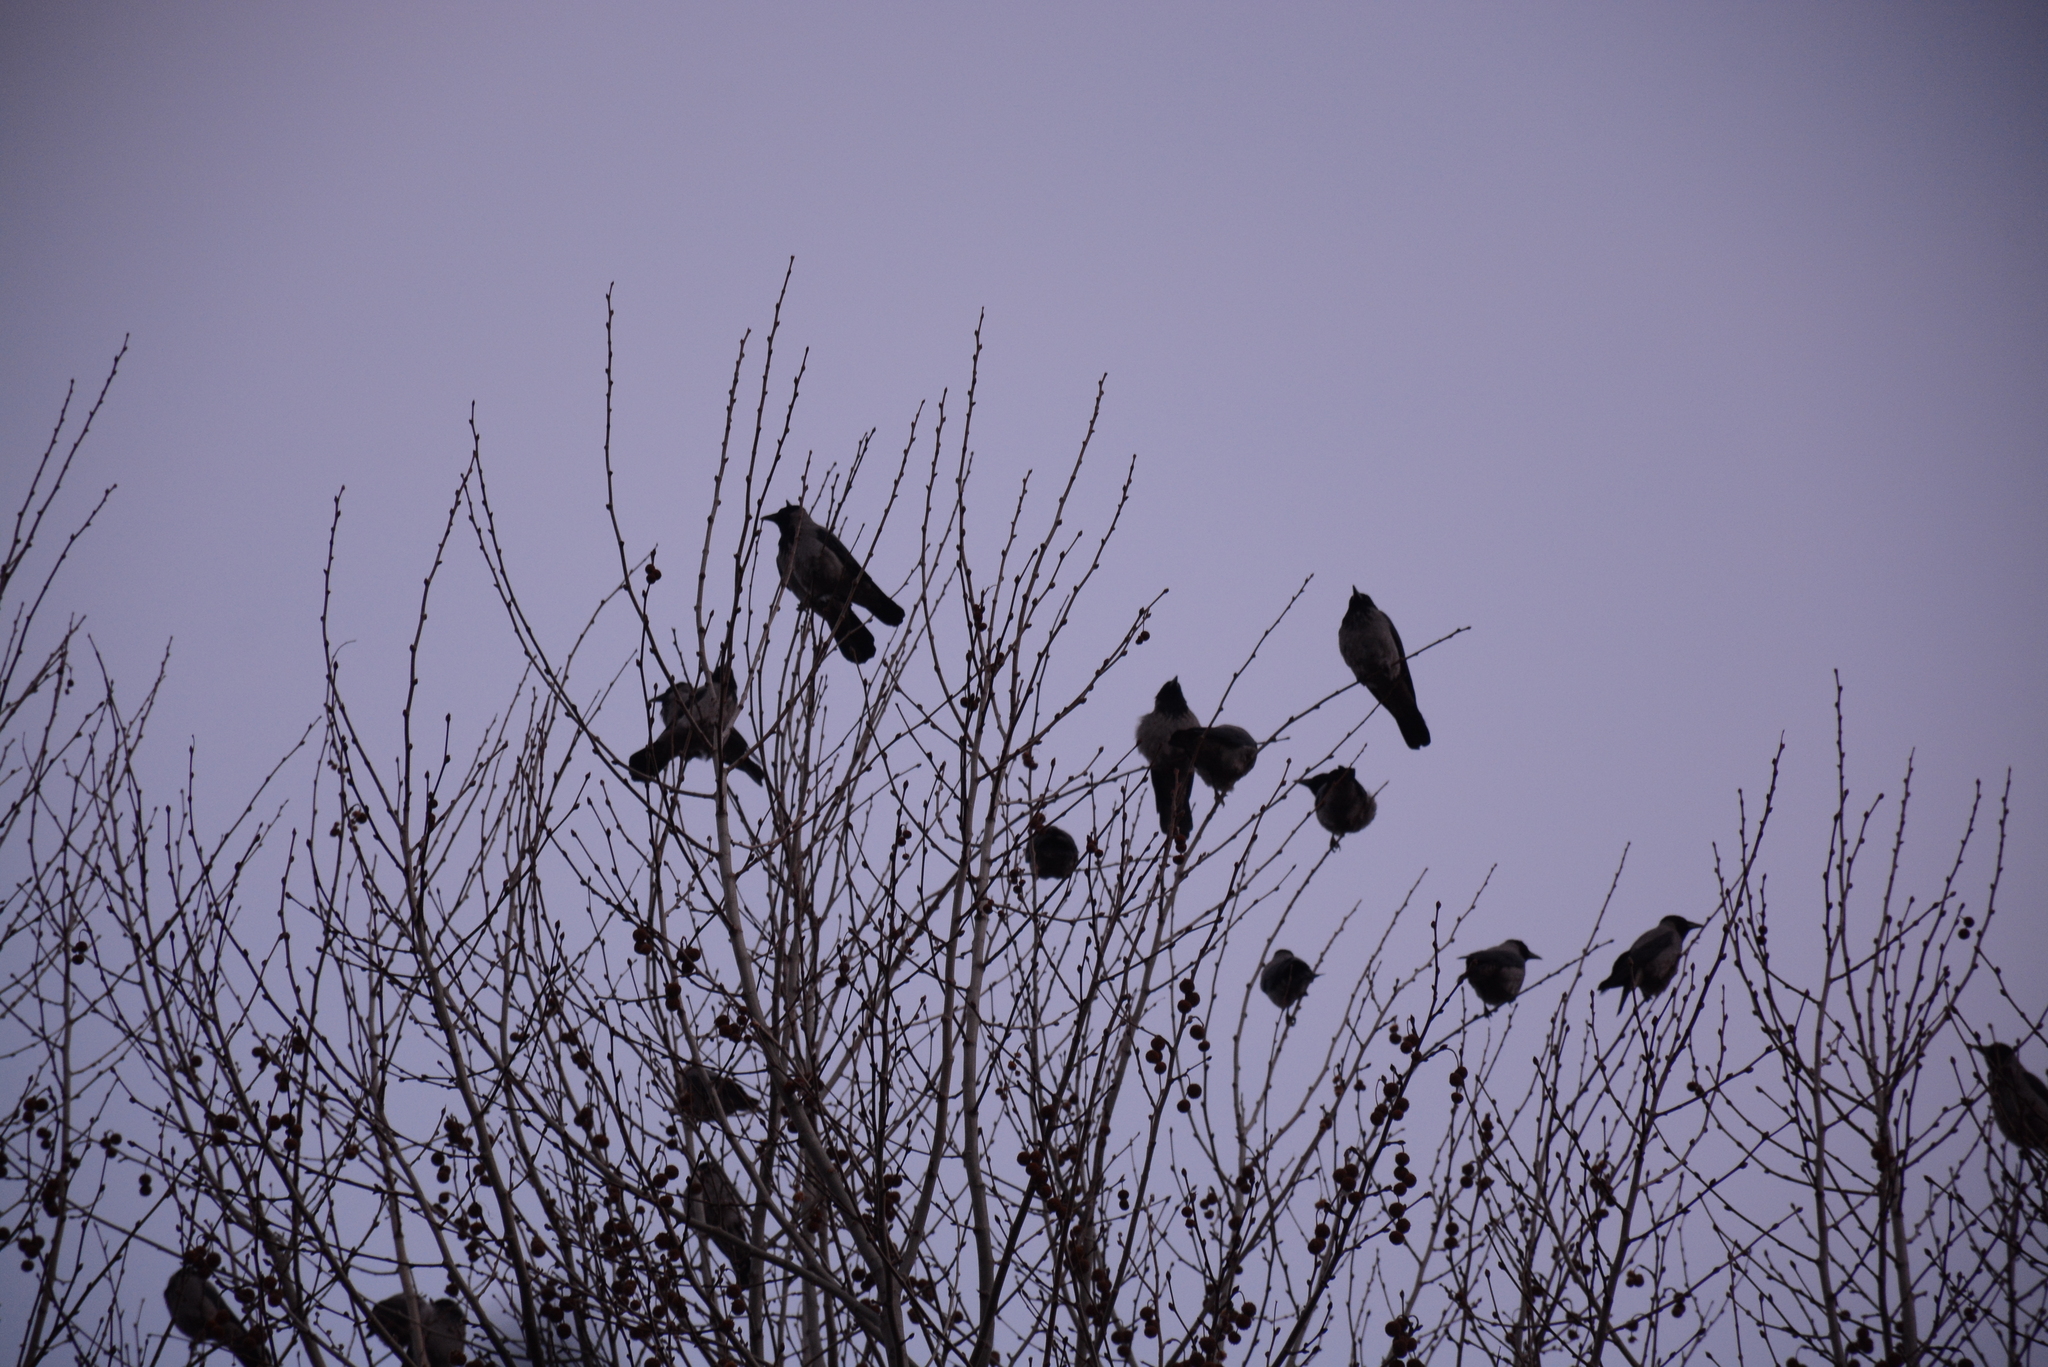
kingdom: Animalia
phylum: Chordata
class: Aves
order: Passeriformes
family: Corvidae
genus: Corvus
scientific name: Corvus cornix
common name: Hooded crow
